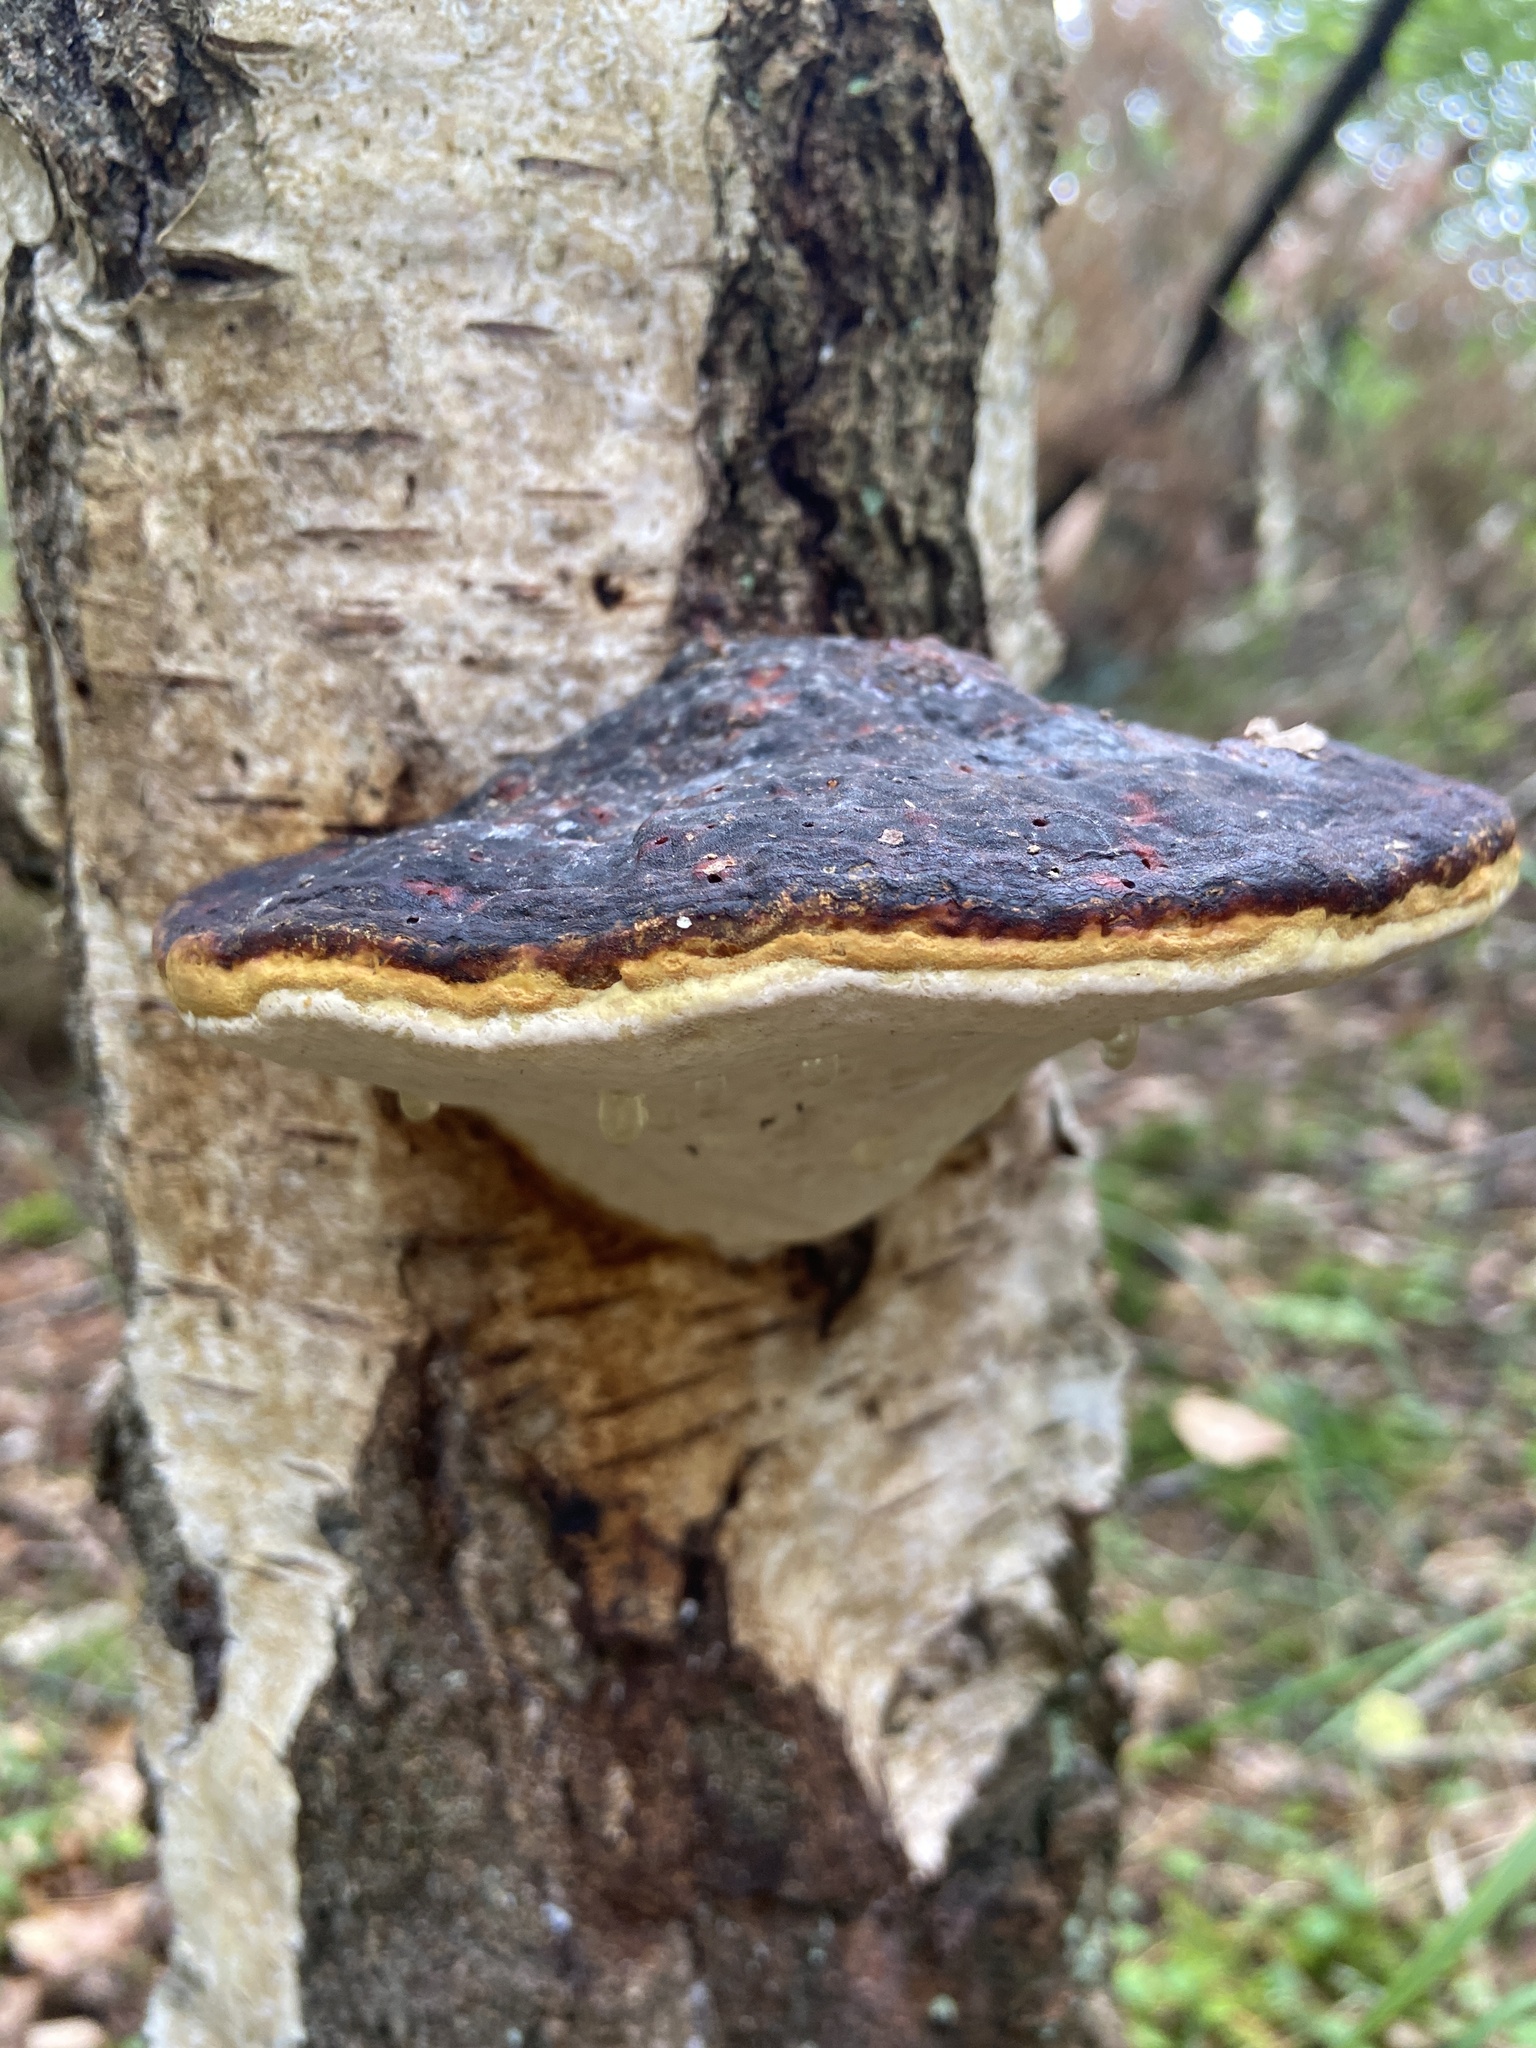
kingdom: Fungi
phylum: Basidiomycota
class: Agaricomycetes
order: Polyporales
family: Fomitopsidaceae
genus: Fomitopsis
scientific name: Fomitopsis pinicola
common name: Red-belted bracket
